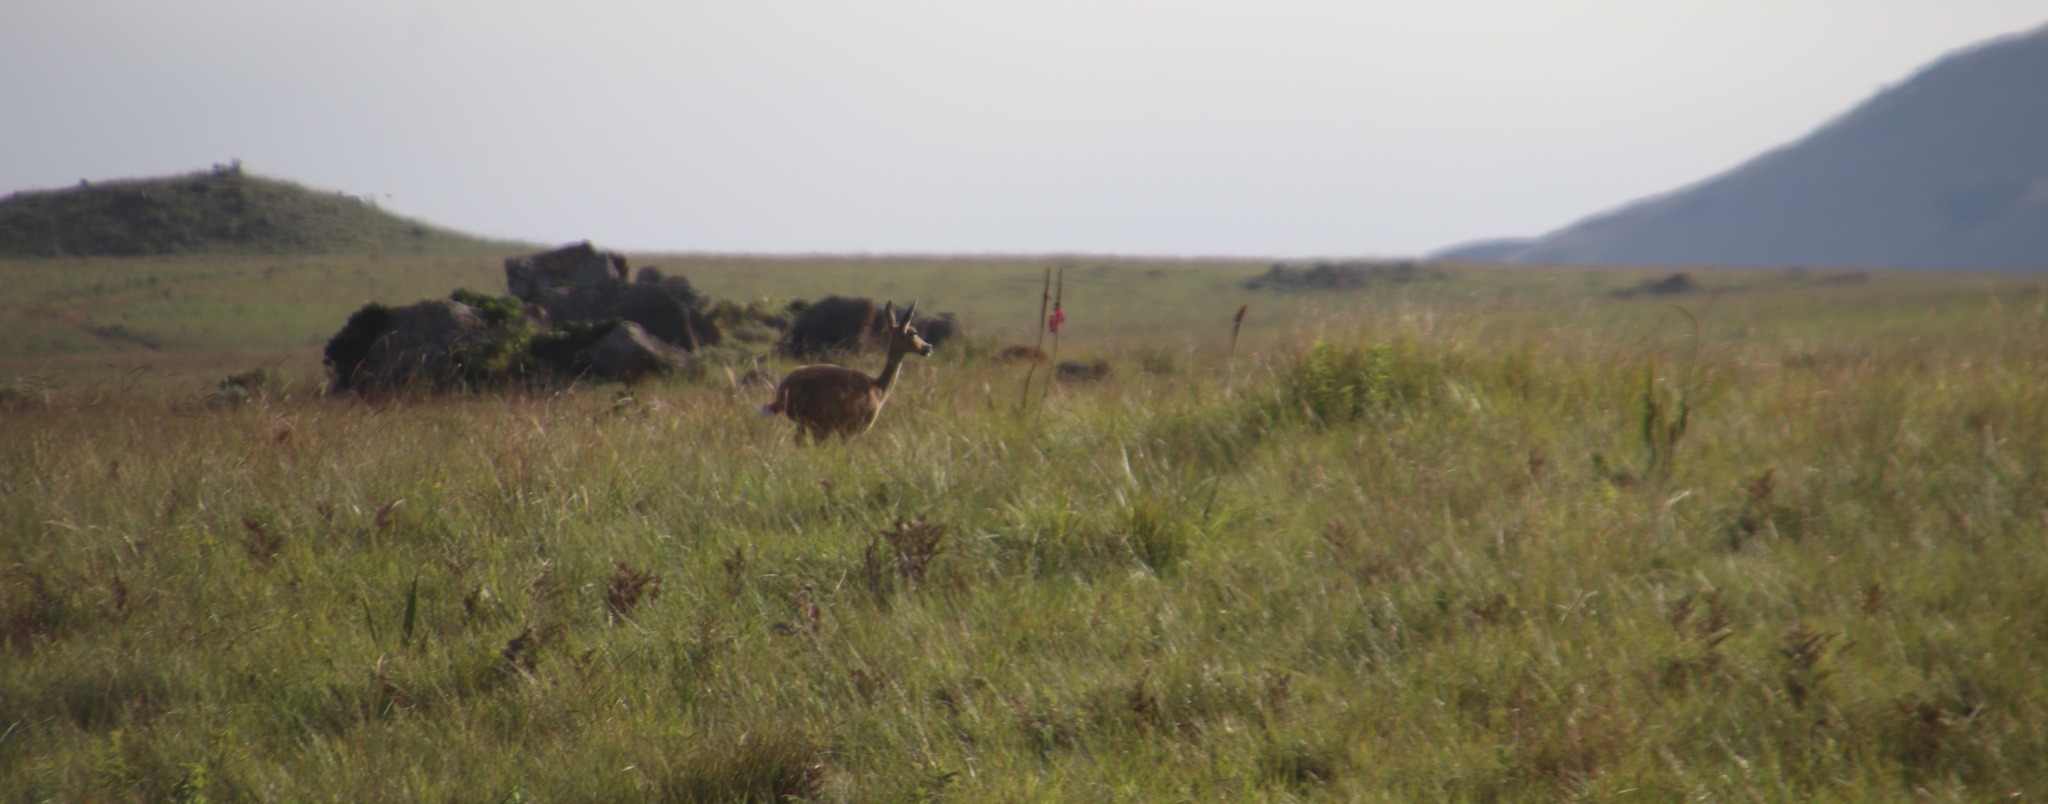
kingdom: Animalia
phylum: Chordata
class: Mammalia
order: Artiodactyla
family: Bovidae
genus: Pelea
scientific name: Pelea capreolus
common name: Common rhebok
